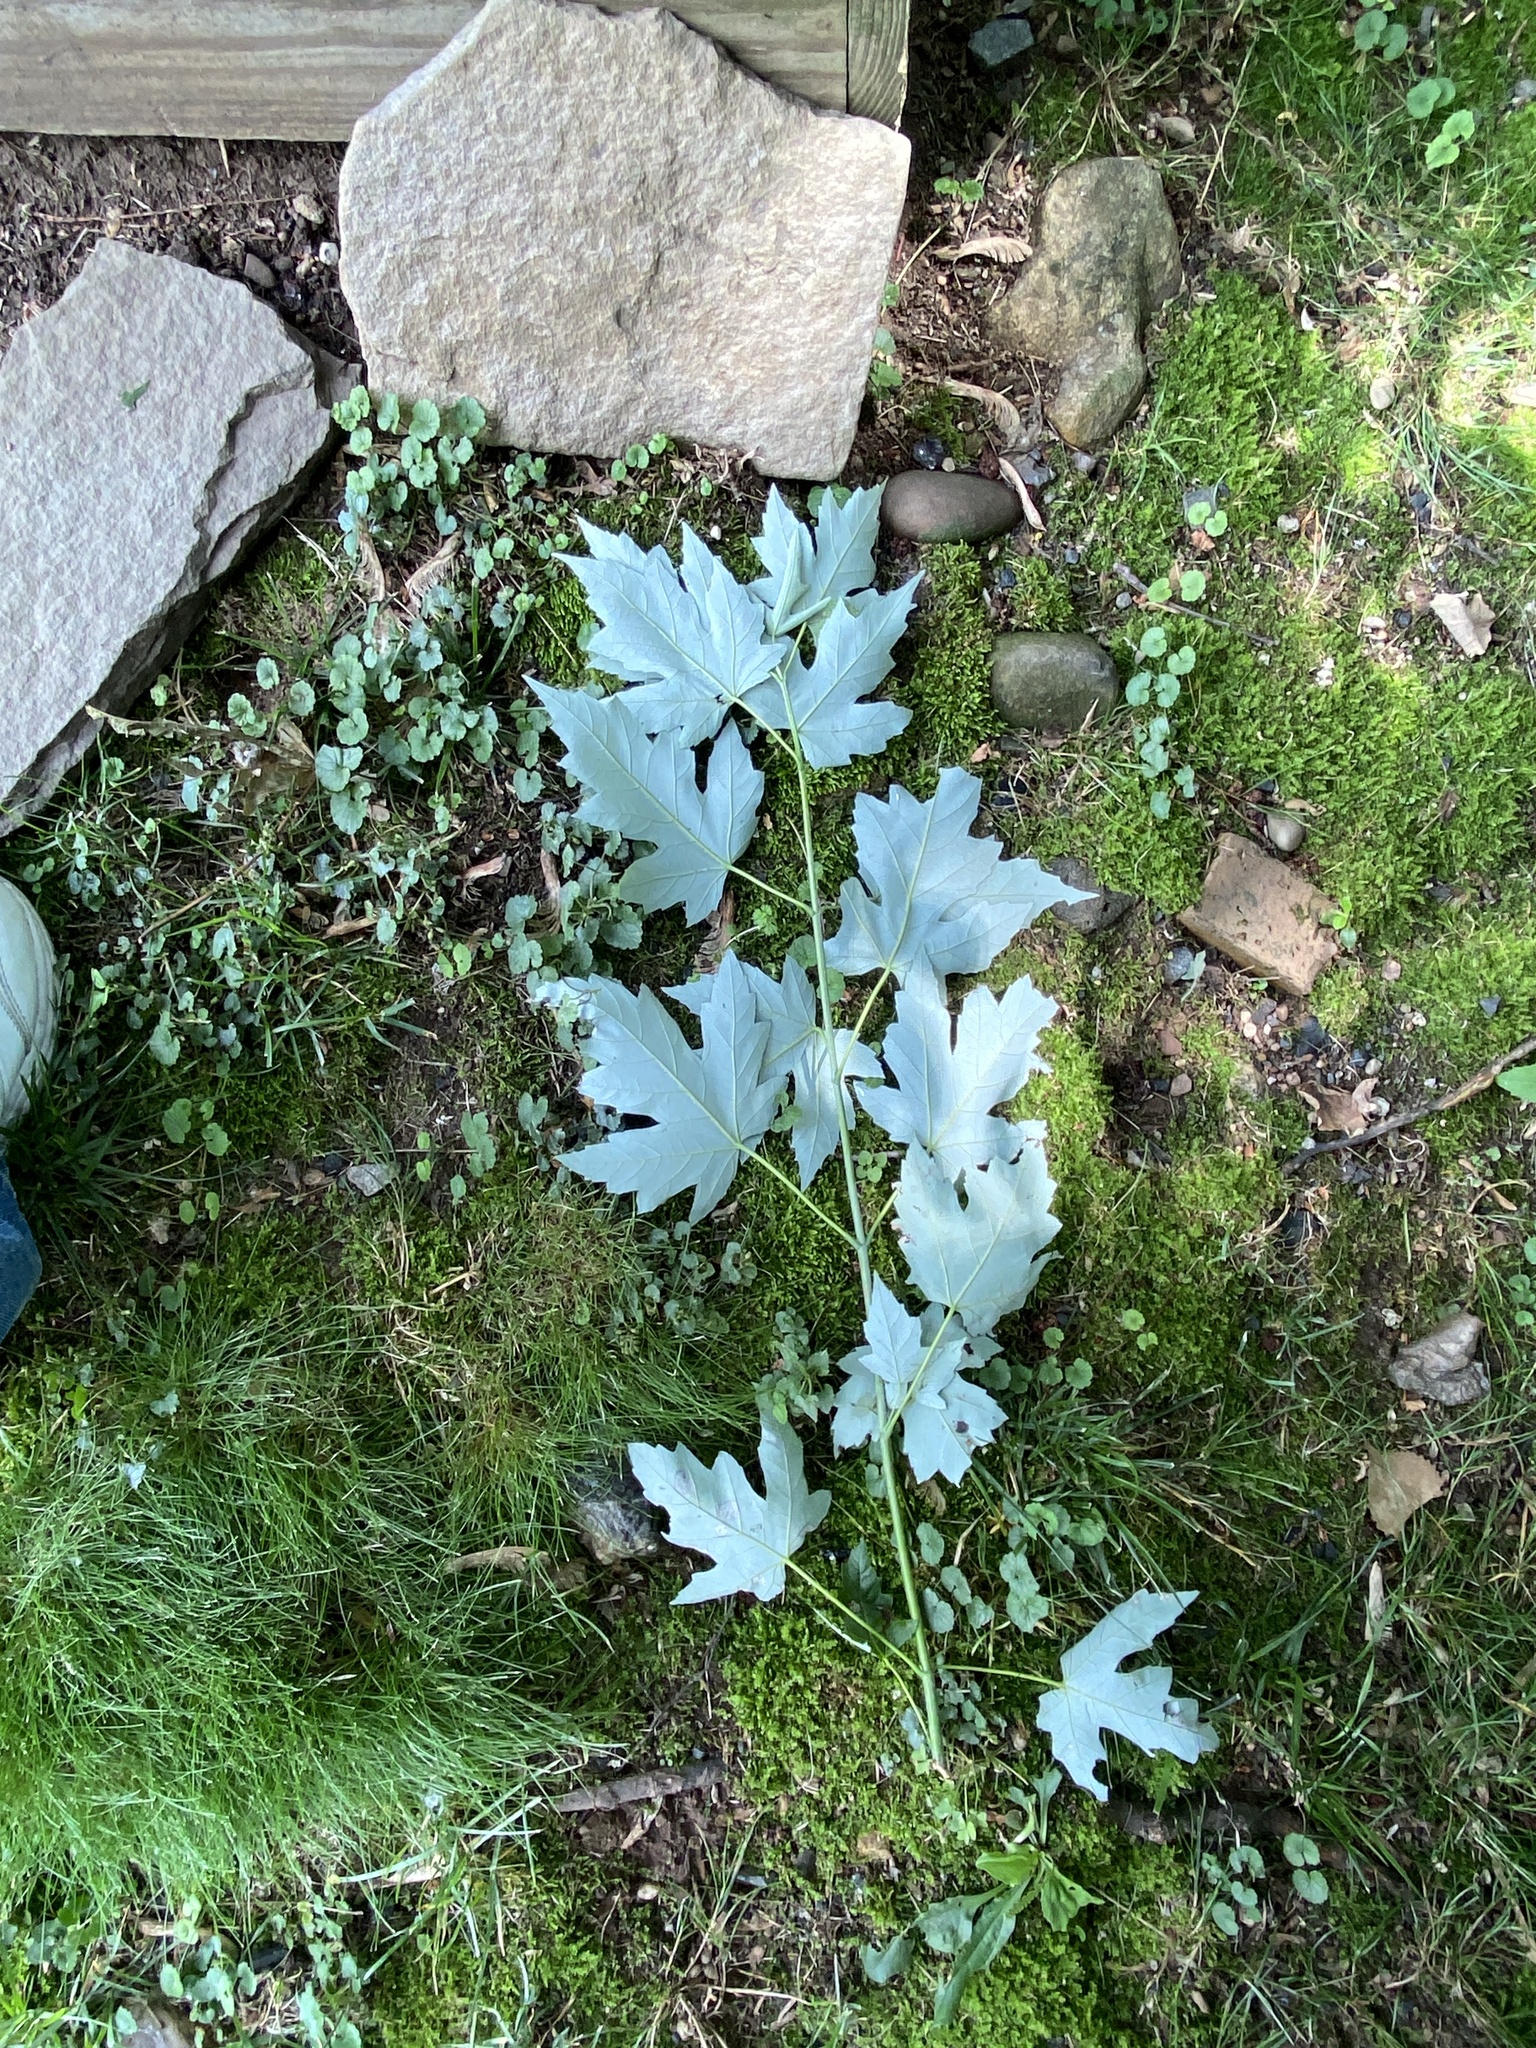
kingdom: Plantae
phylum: Tracheophyta
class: Magnoliopsida
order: Sapindales
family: Sapindaceae
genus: Acer
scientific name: Acer saccharinum
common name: Silver maple
